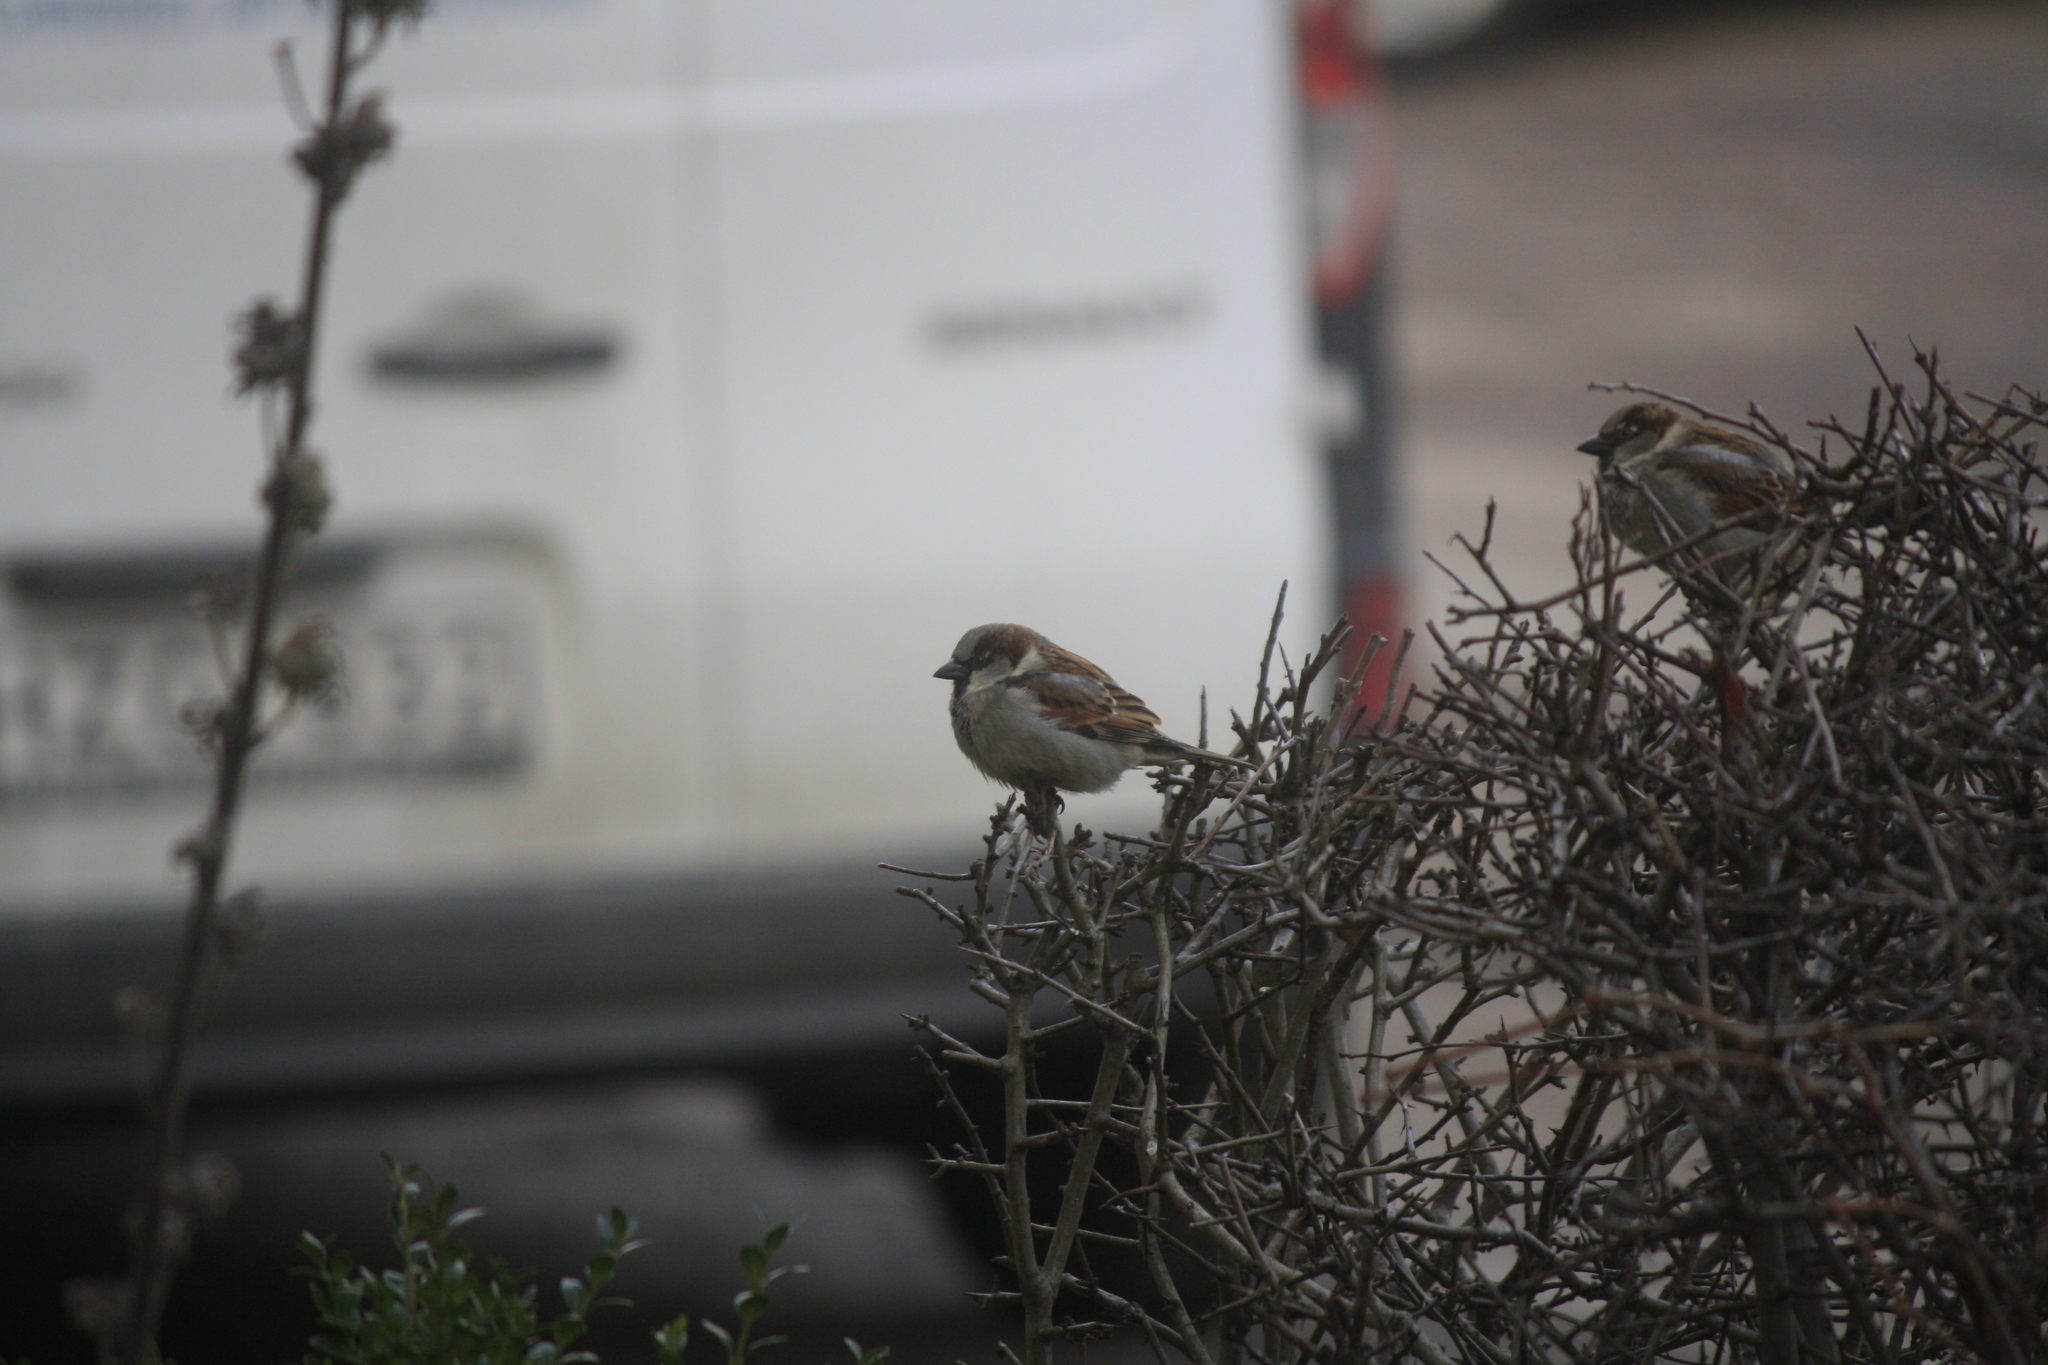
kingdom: Animalia
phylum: Chordata
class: Aves
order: Passeriformes
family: Passeridae
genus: Passer
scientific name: Passer domesticus
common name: House sparrow
